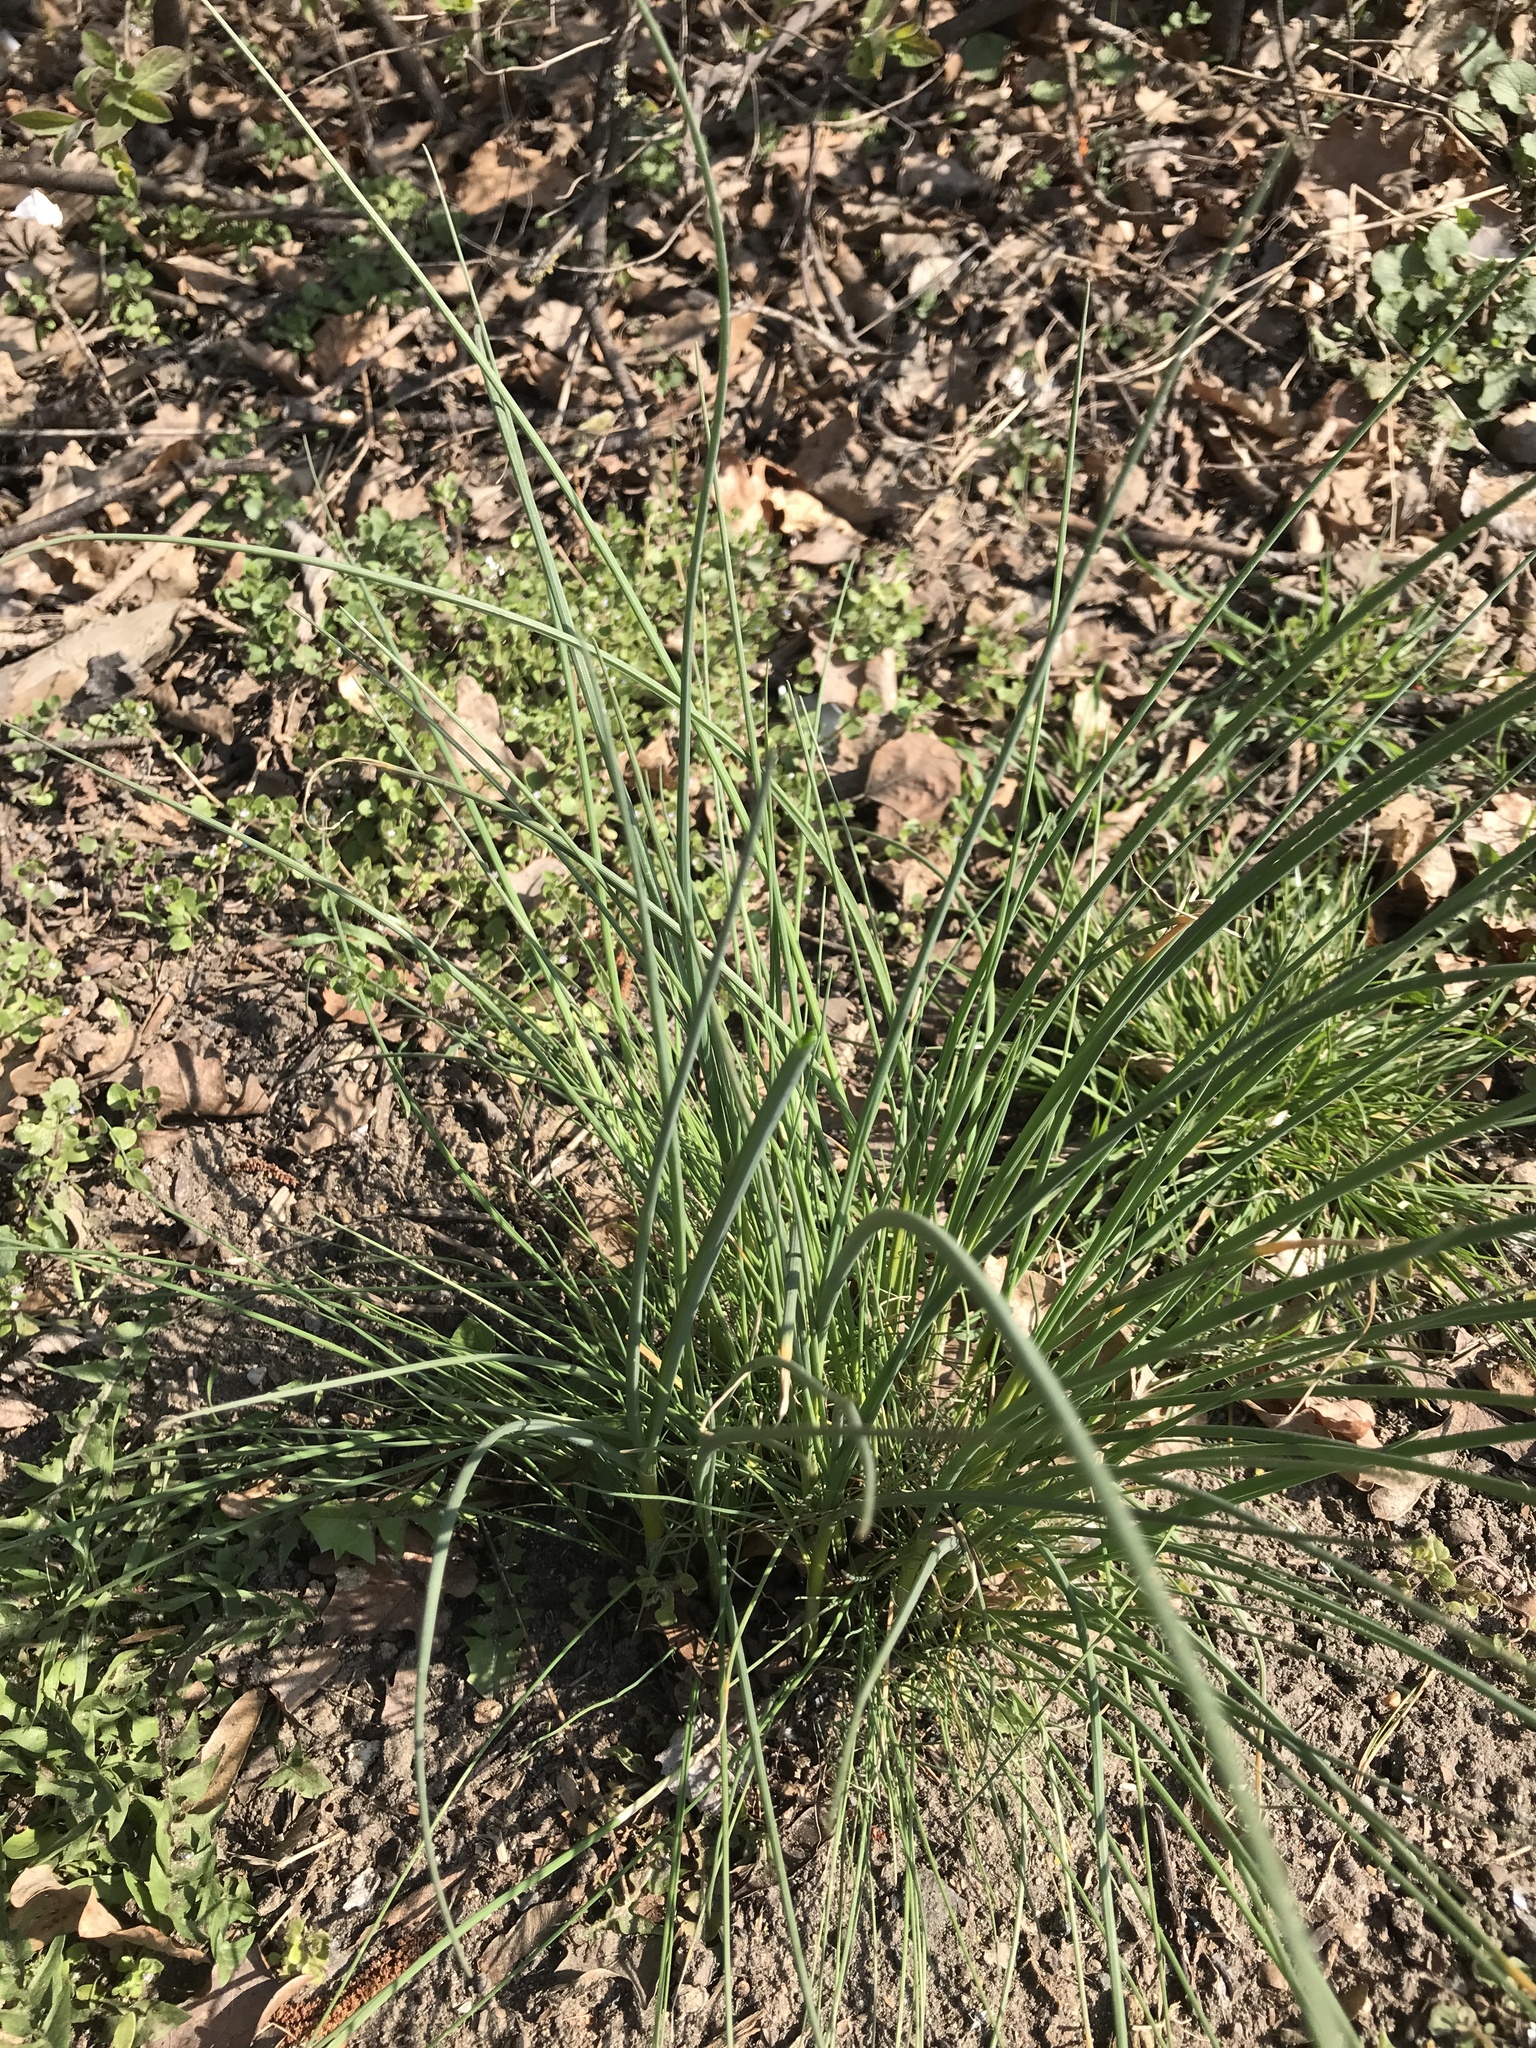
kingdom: Plantae
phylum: Tracheophyta
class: Liliopsida
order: Asparagales
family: Amaryllidaceae
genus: Allium
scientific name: Allium vineale
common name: Crow garlic
